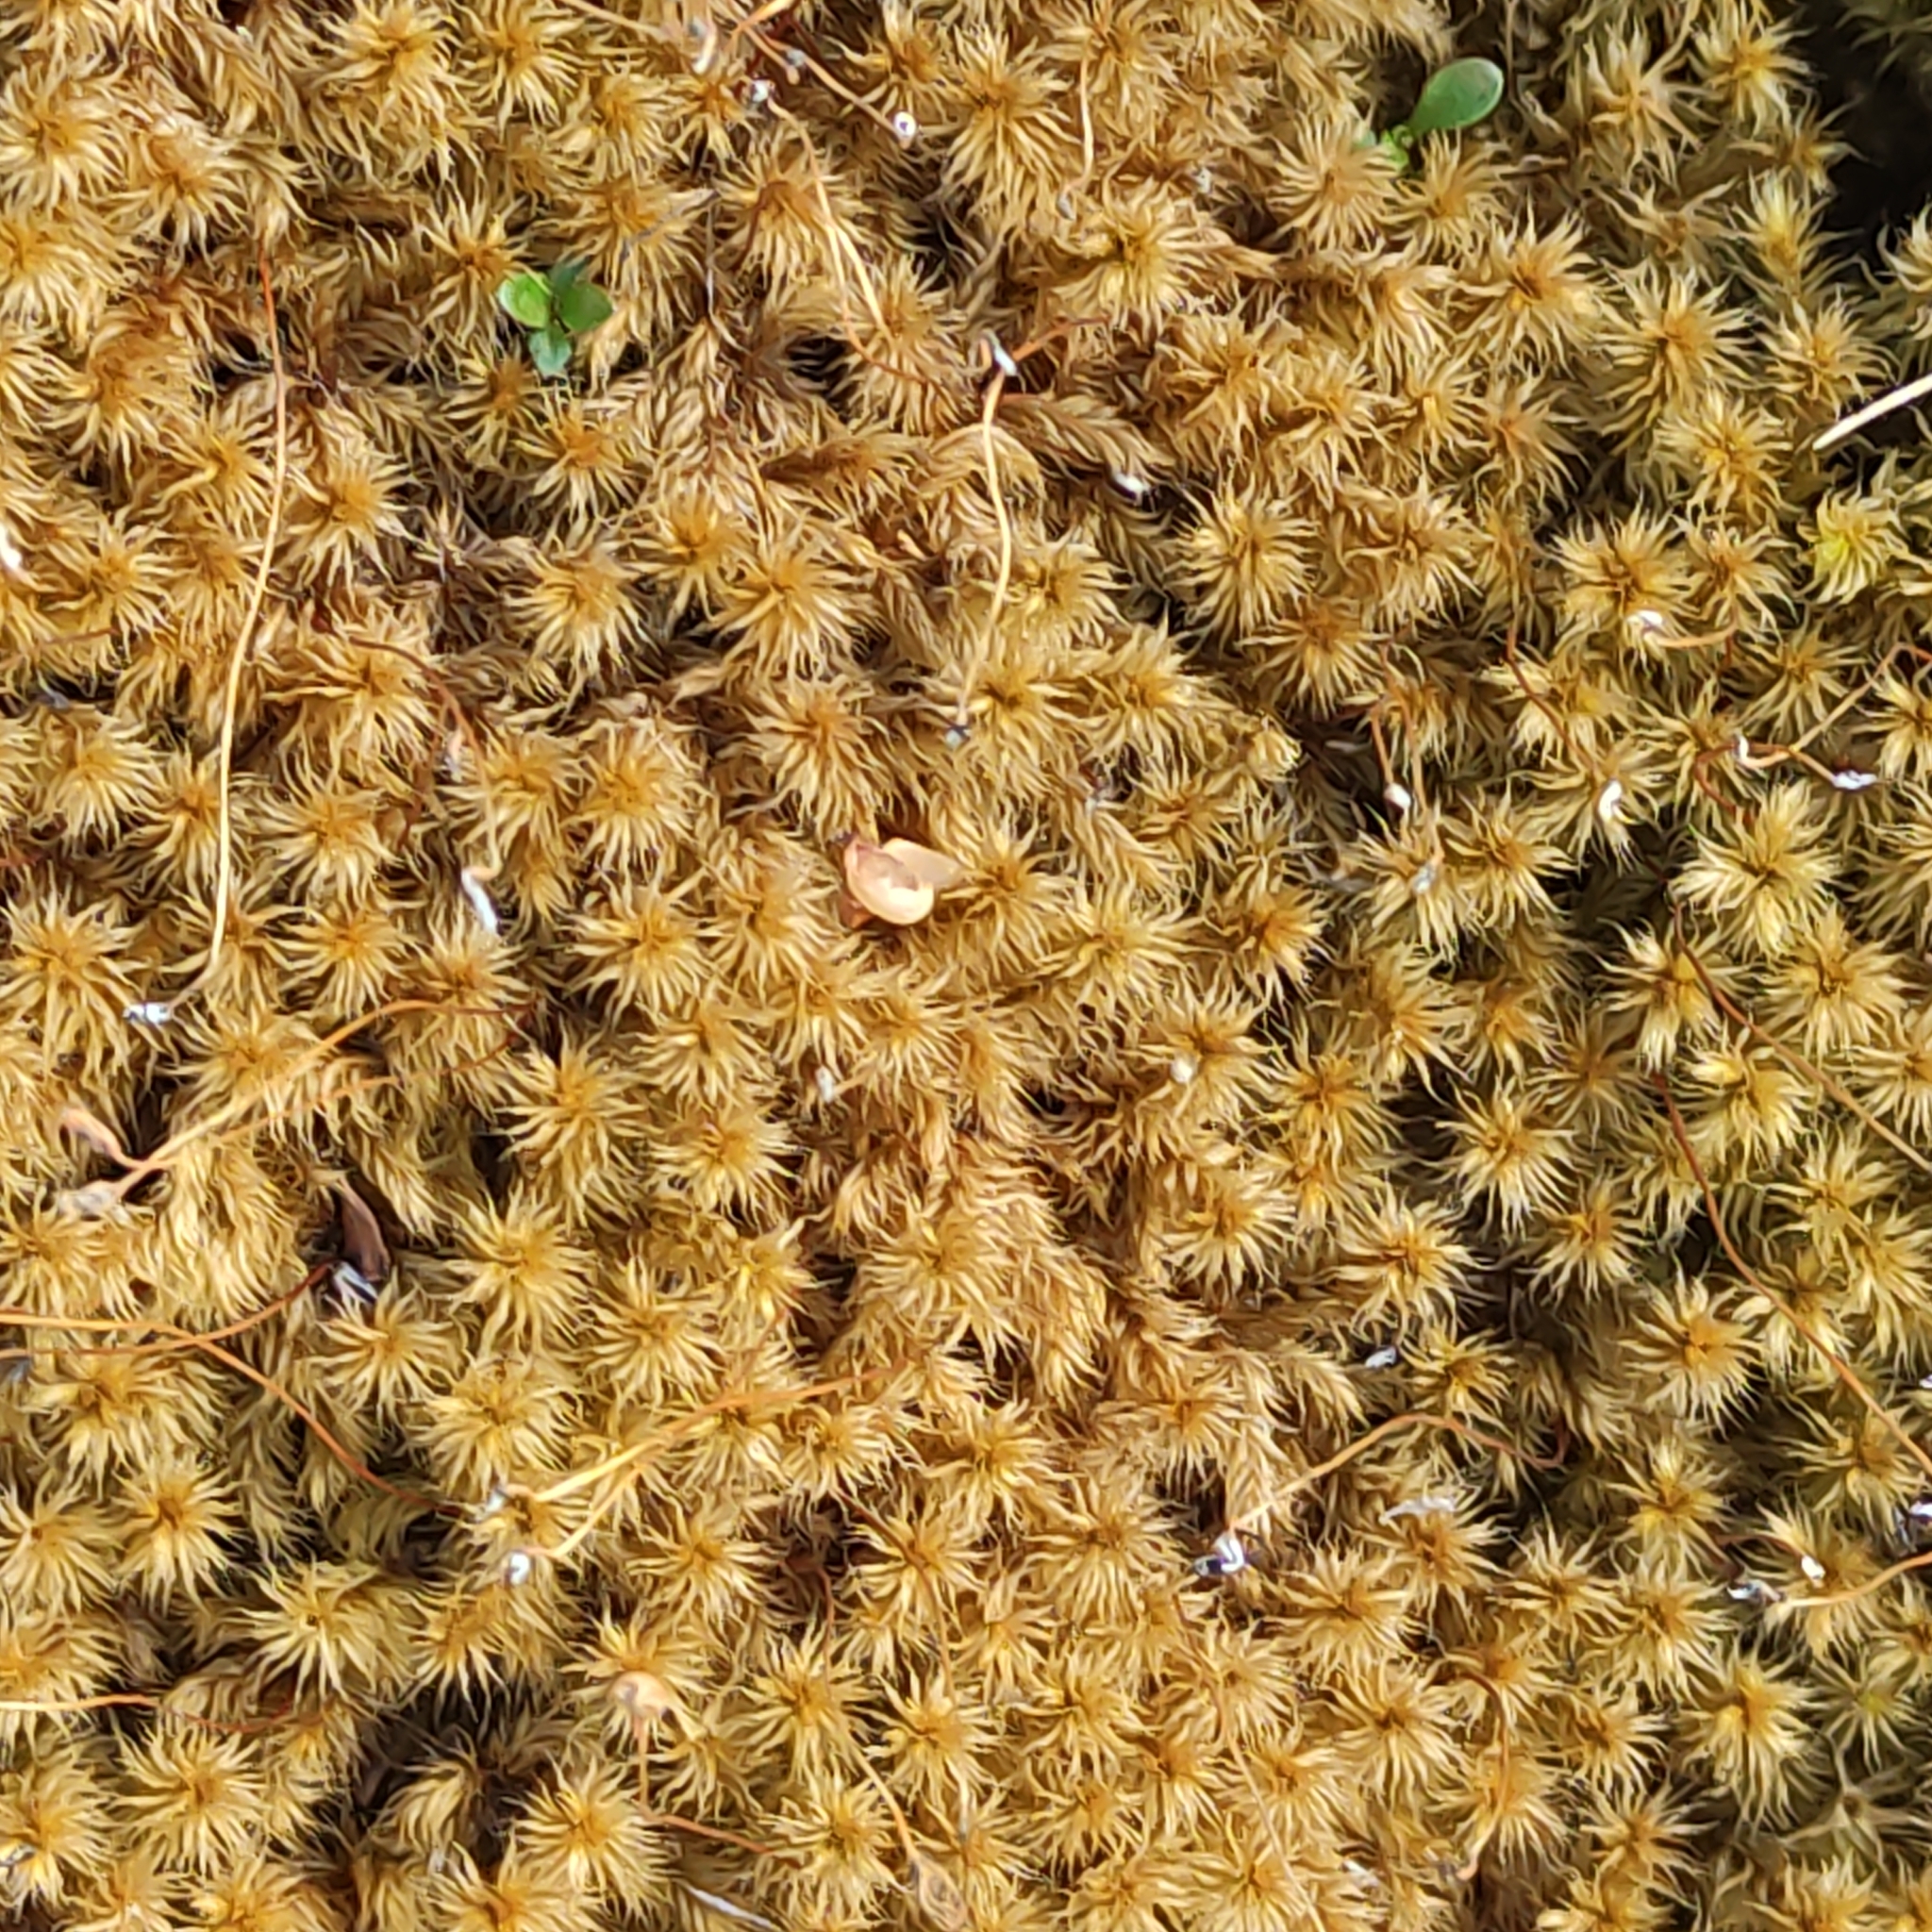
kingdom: Plantae
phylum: Bryophyta
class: Bryopsida
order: Grimmiales
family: Grimmiaceae
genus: Racomitrium
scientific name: Racomitrium lanuginosum
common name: Hoary rock moss
